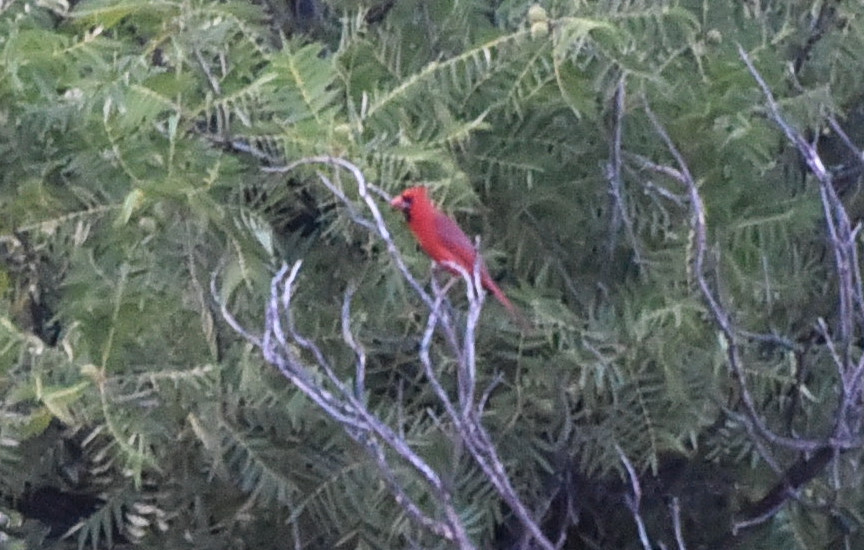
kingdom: Animalia
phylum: Chordata
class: Aves
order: Passeriformes
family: Cardinalidae
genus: Cardinalis
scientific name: Cardinalis cardinalis
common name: Northern cardinal
